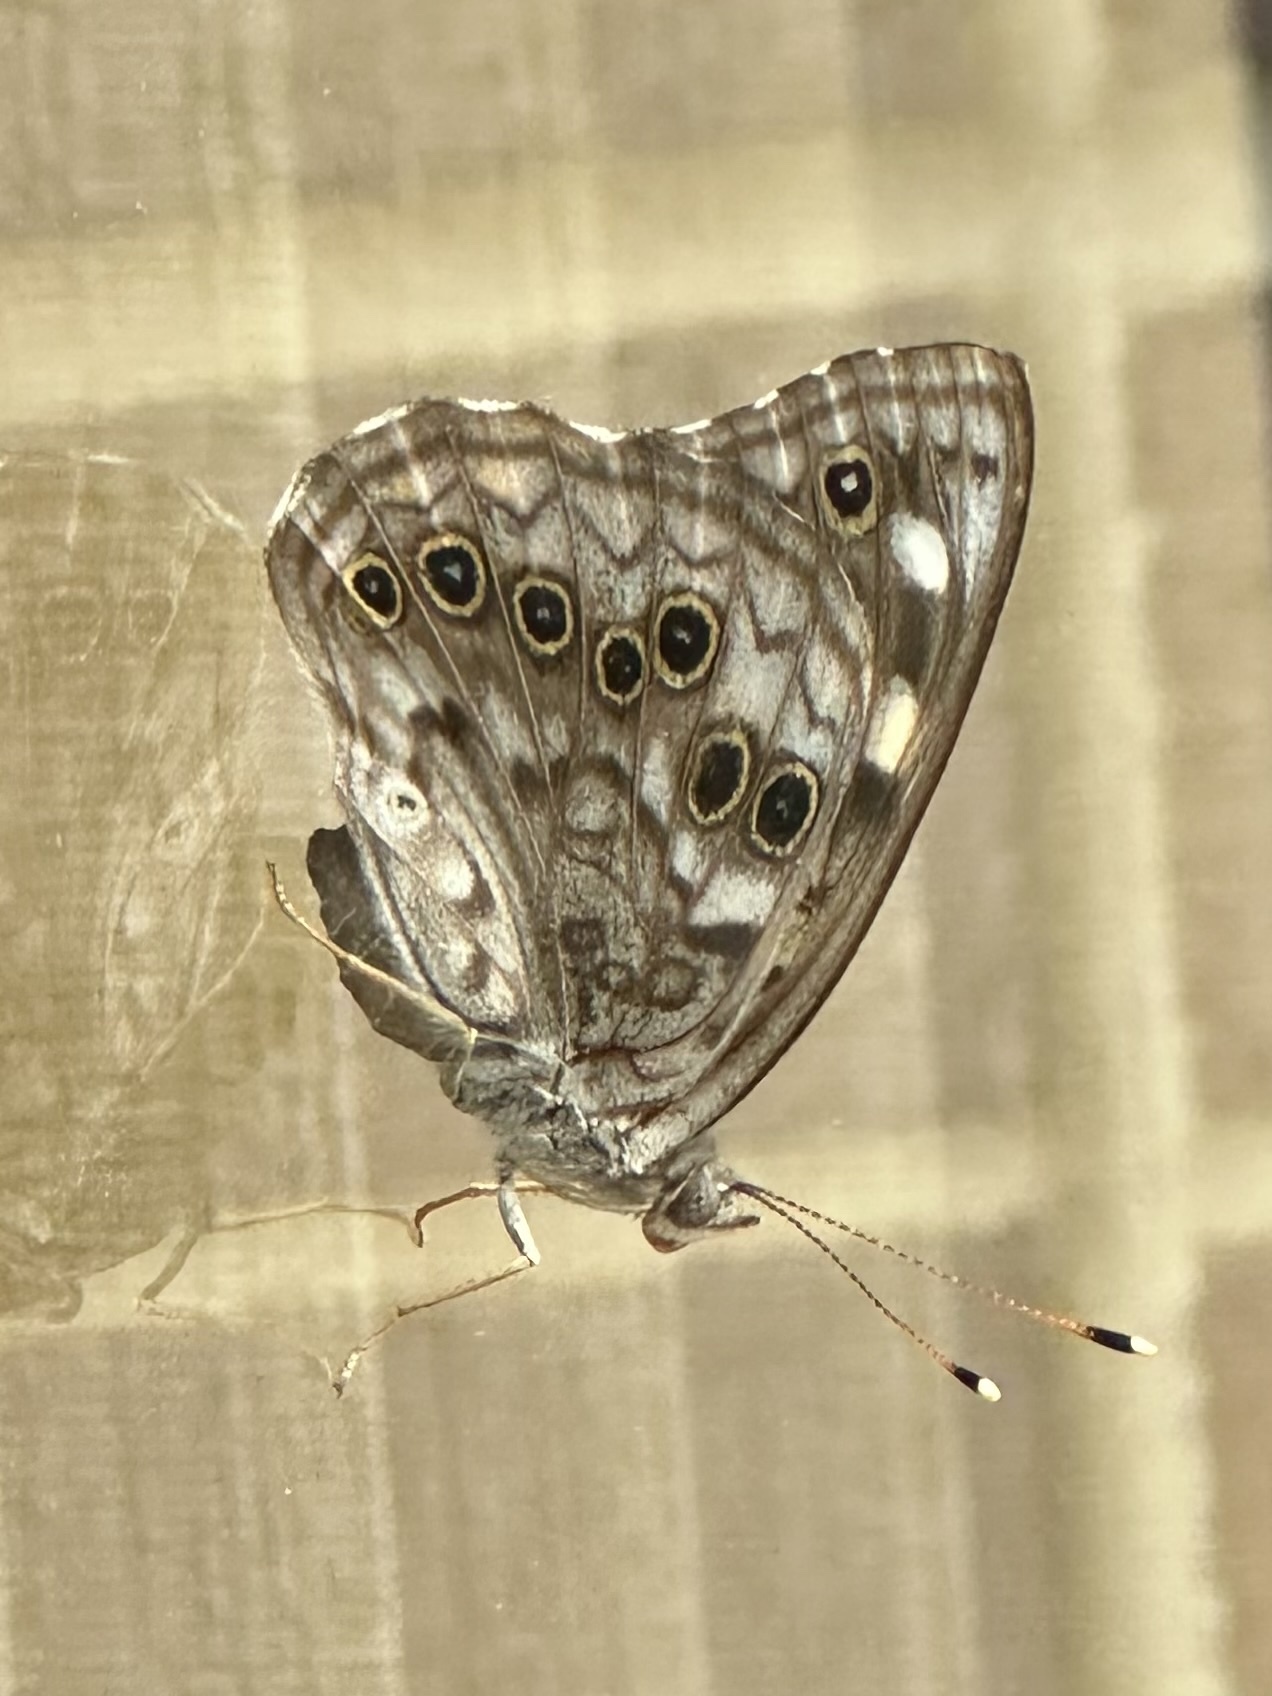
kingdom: Animalia
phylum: Arthropoda
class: Insecta
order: Lepidoptera
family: Nymphalidae
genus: Asterocampa
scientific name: Asterocampa celtis
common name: Hackberry emperor
